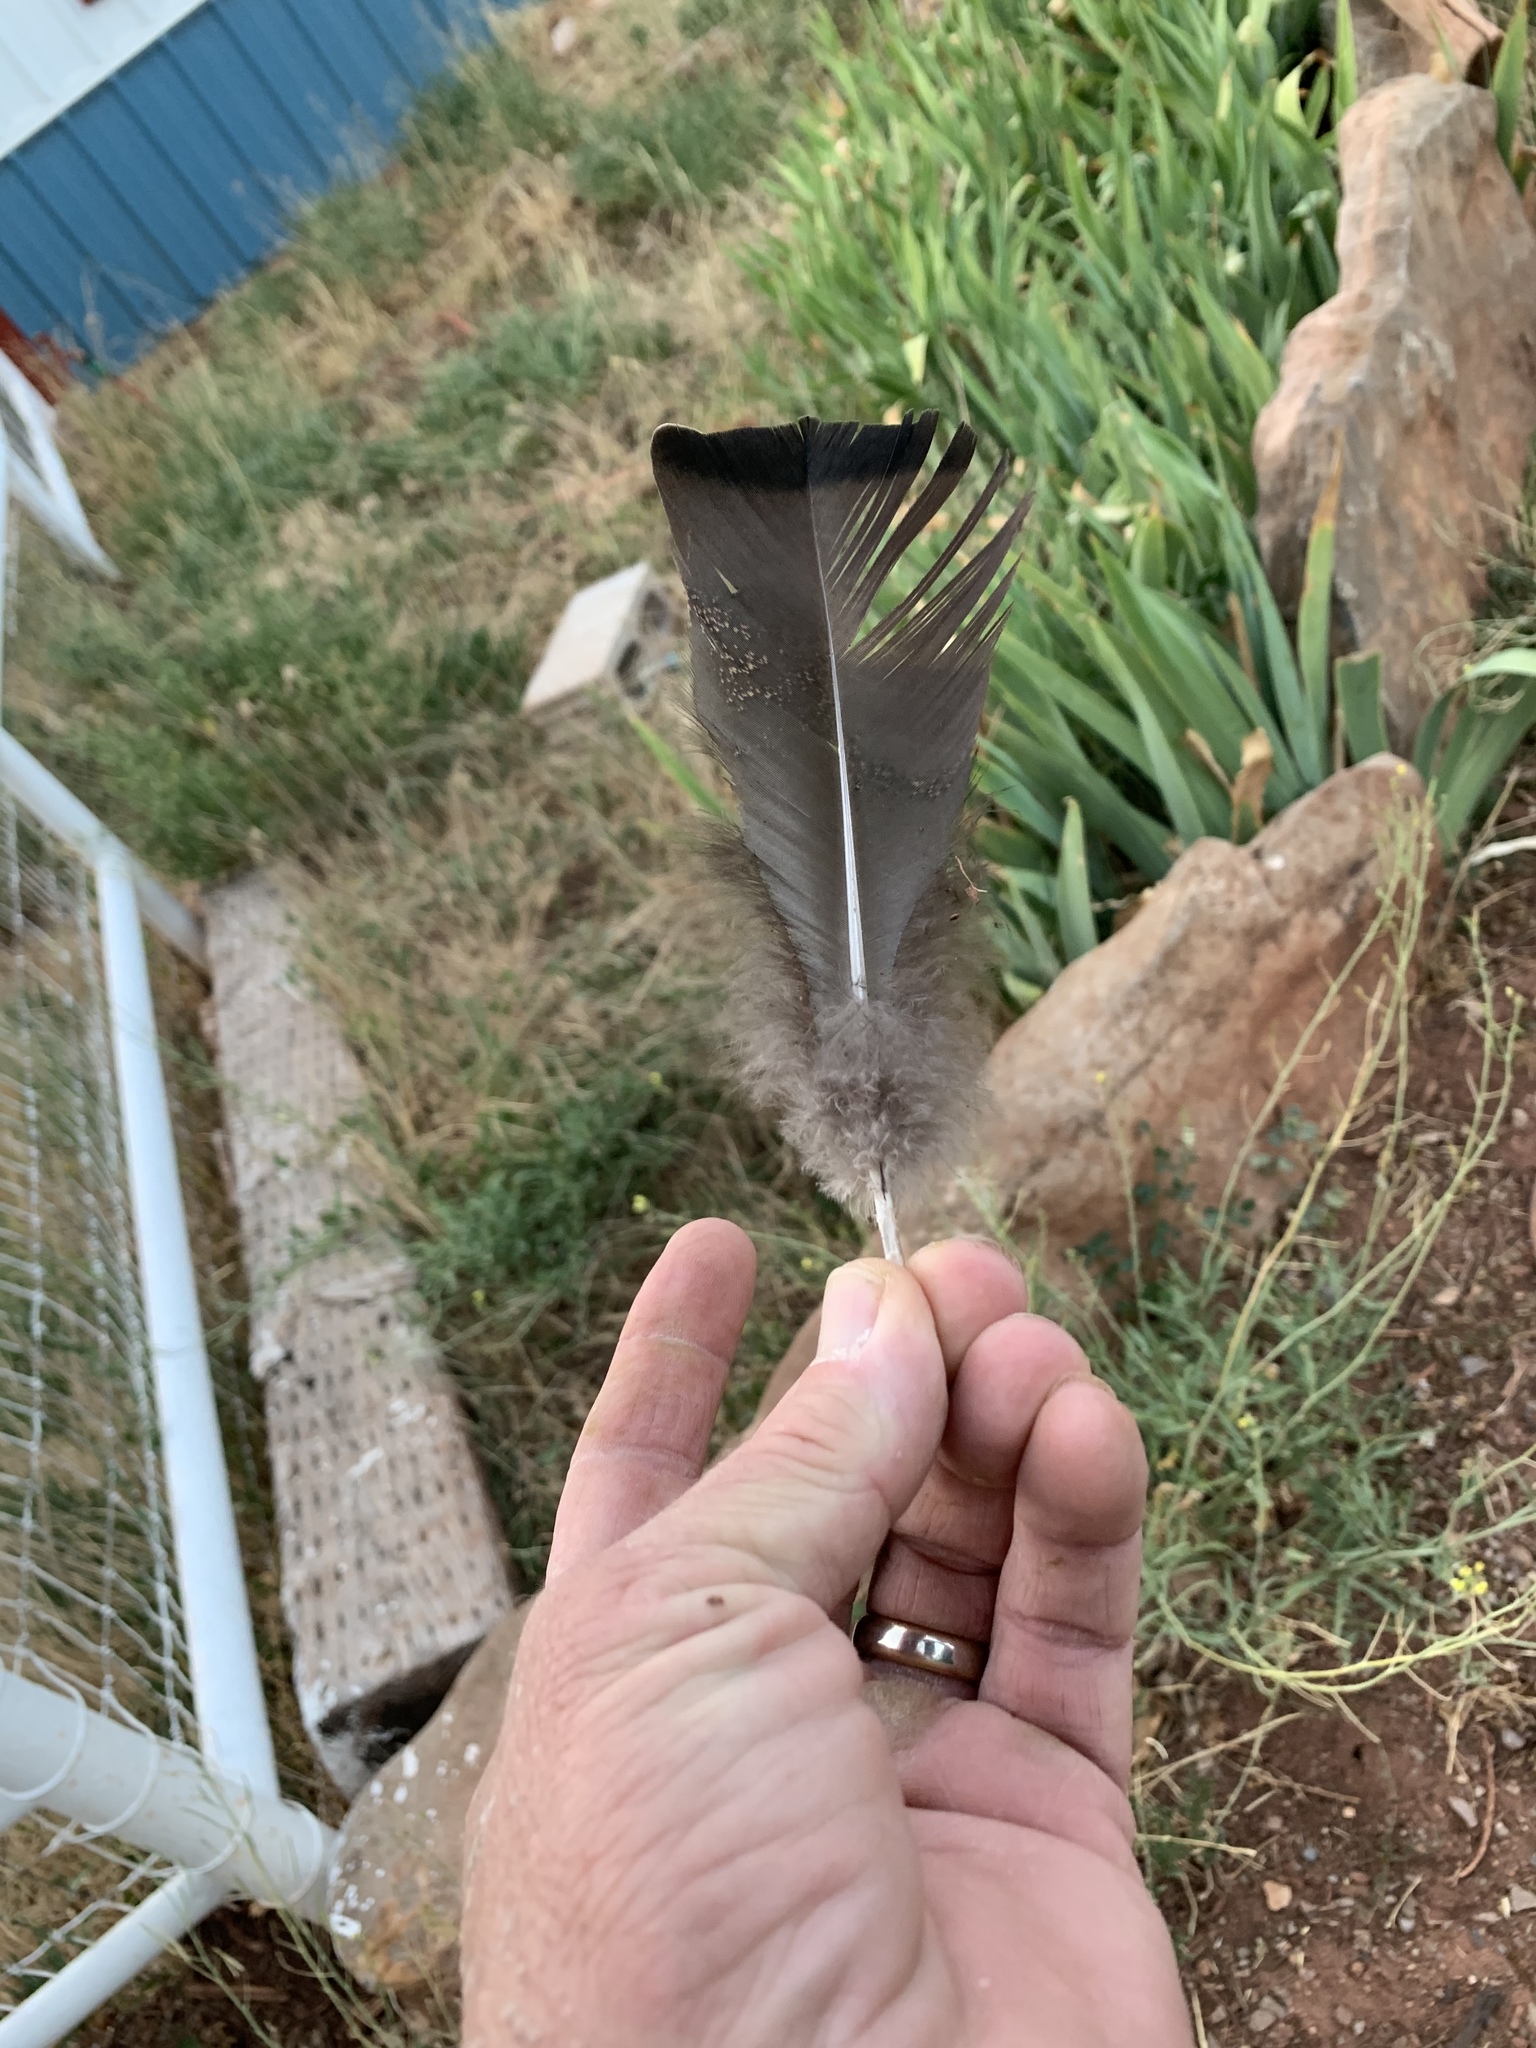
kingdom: Animalia
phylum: Chordata
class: Aves
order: Galliformes
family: Phasianidae
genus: Meleagris
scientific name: Meleagris gallopavo
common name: Wild turkey
